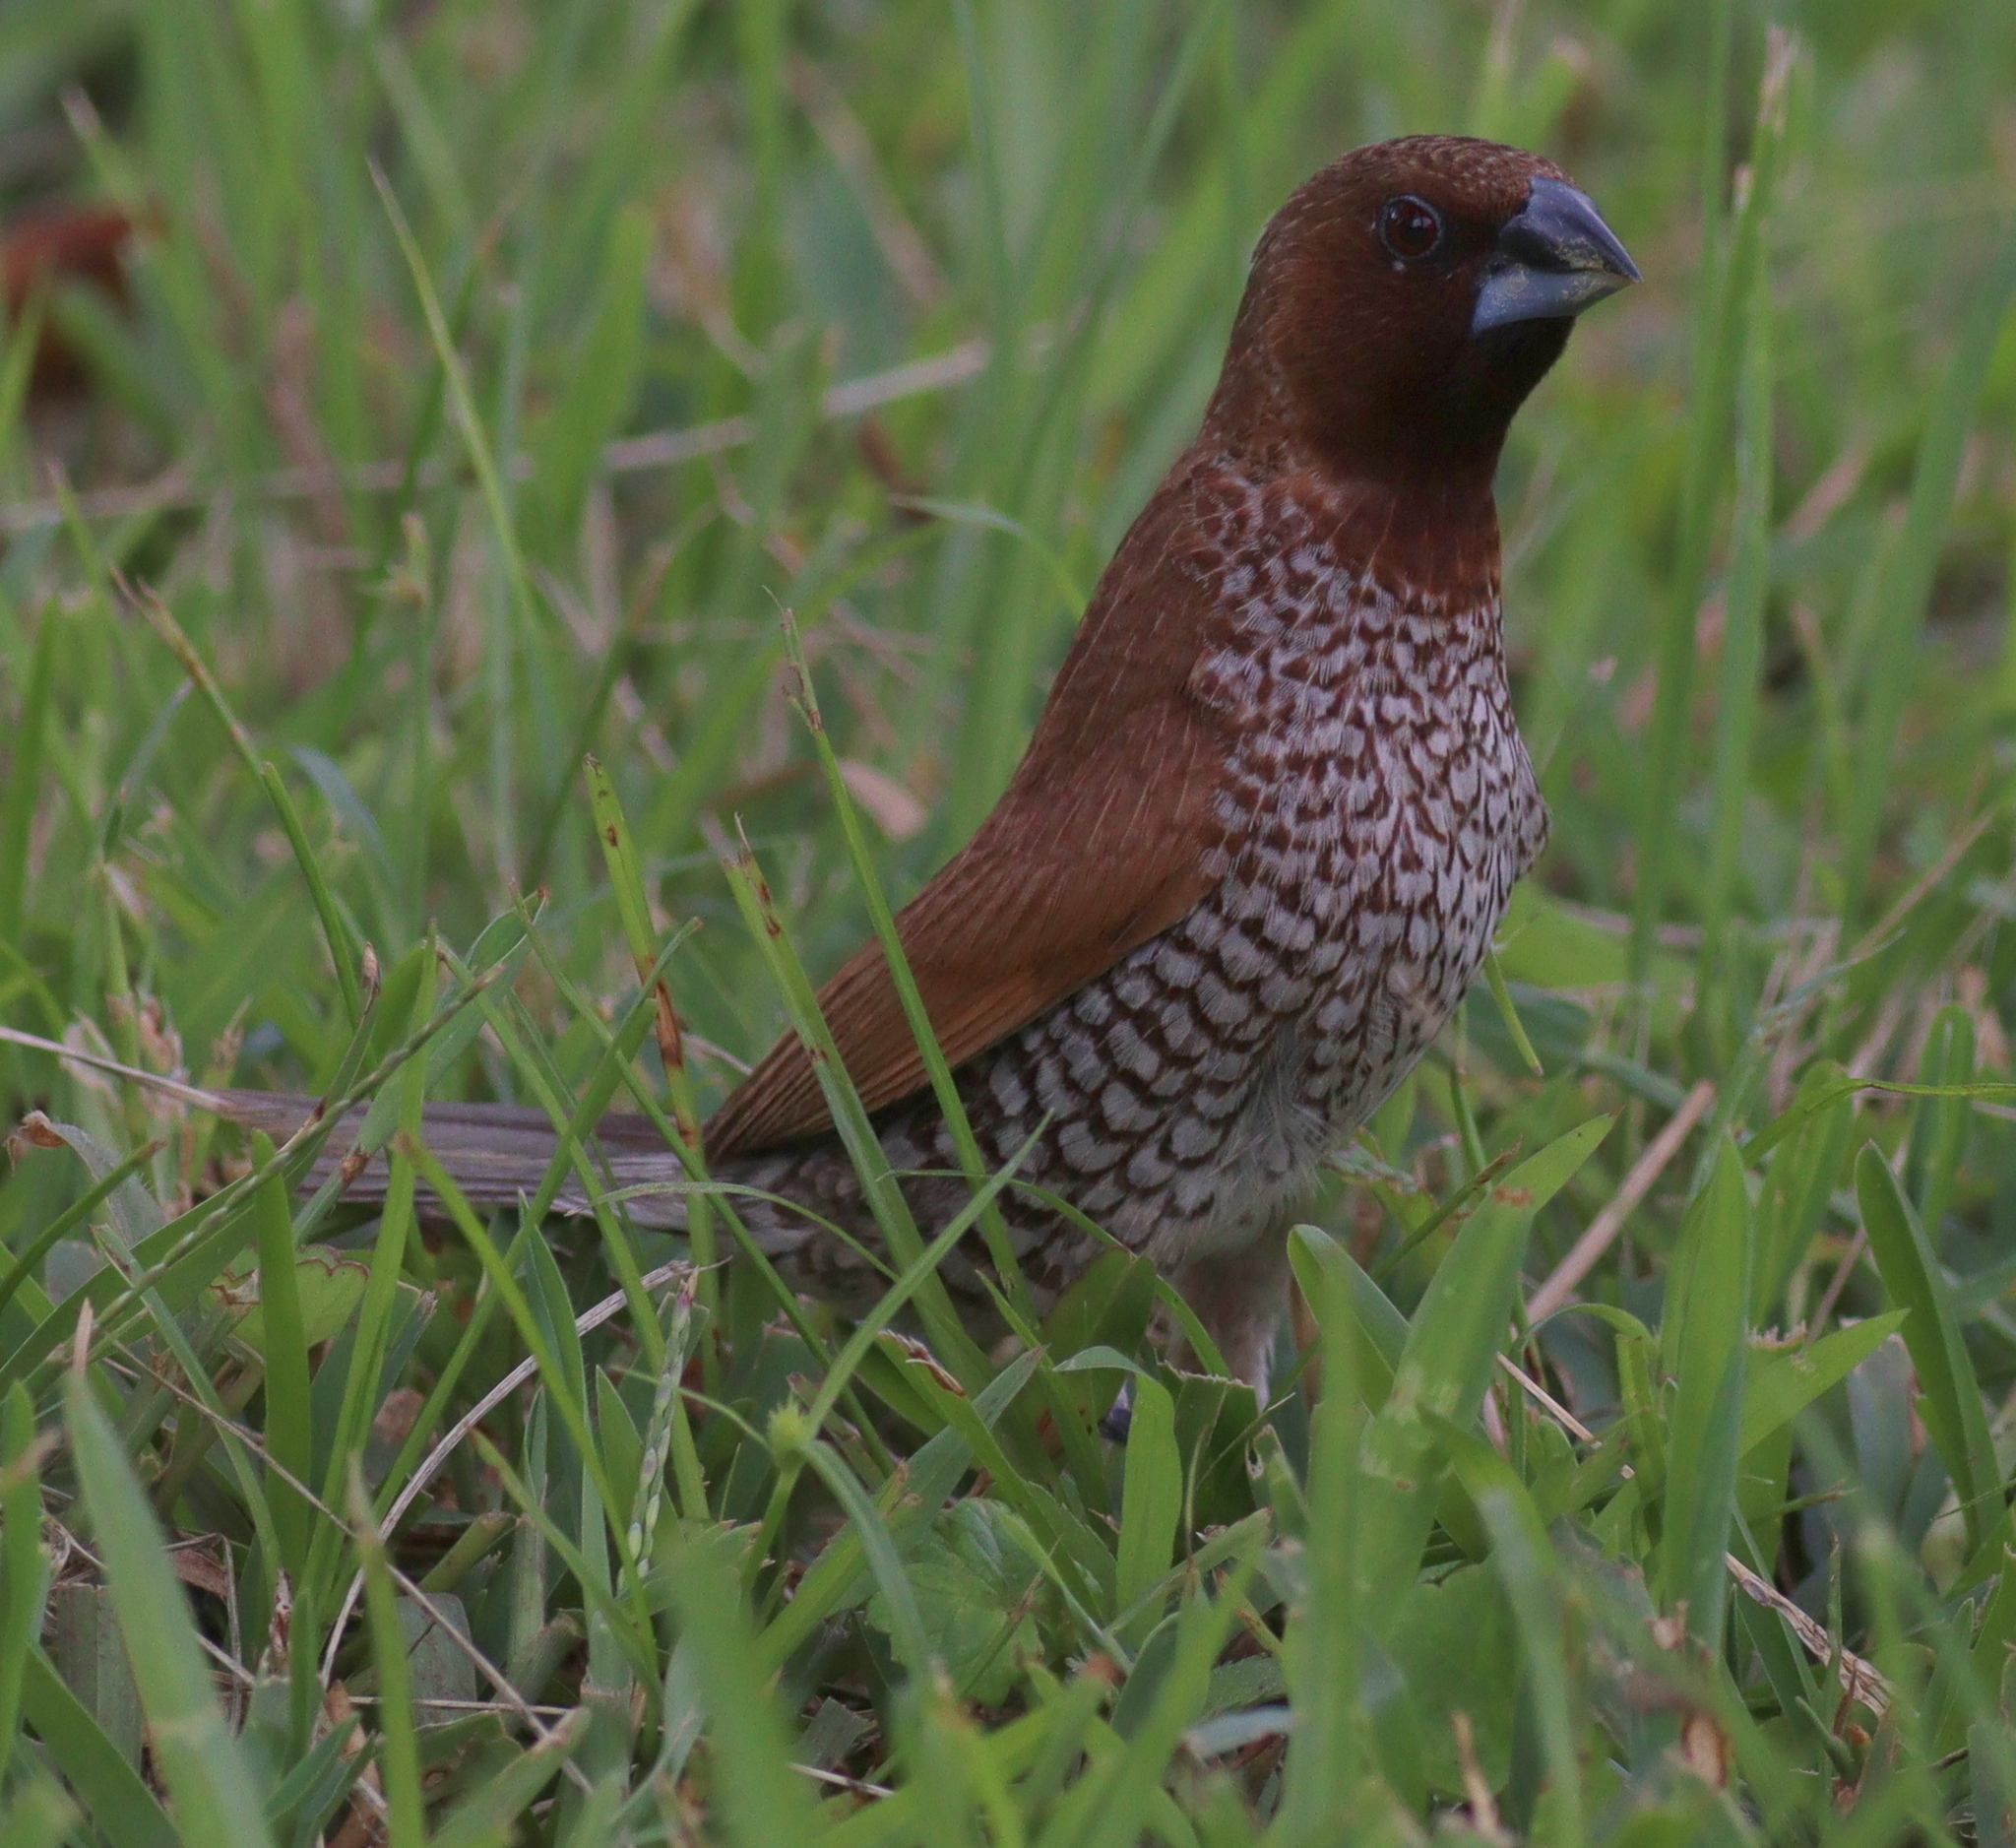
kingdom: Animalia
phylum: Chordata
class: Aves
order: Passeriformes
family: Estrildidae
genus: Lonchura
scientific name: Lonchura punctulata
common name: Scaly-breasted munia
